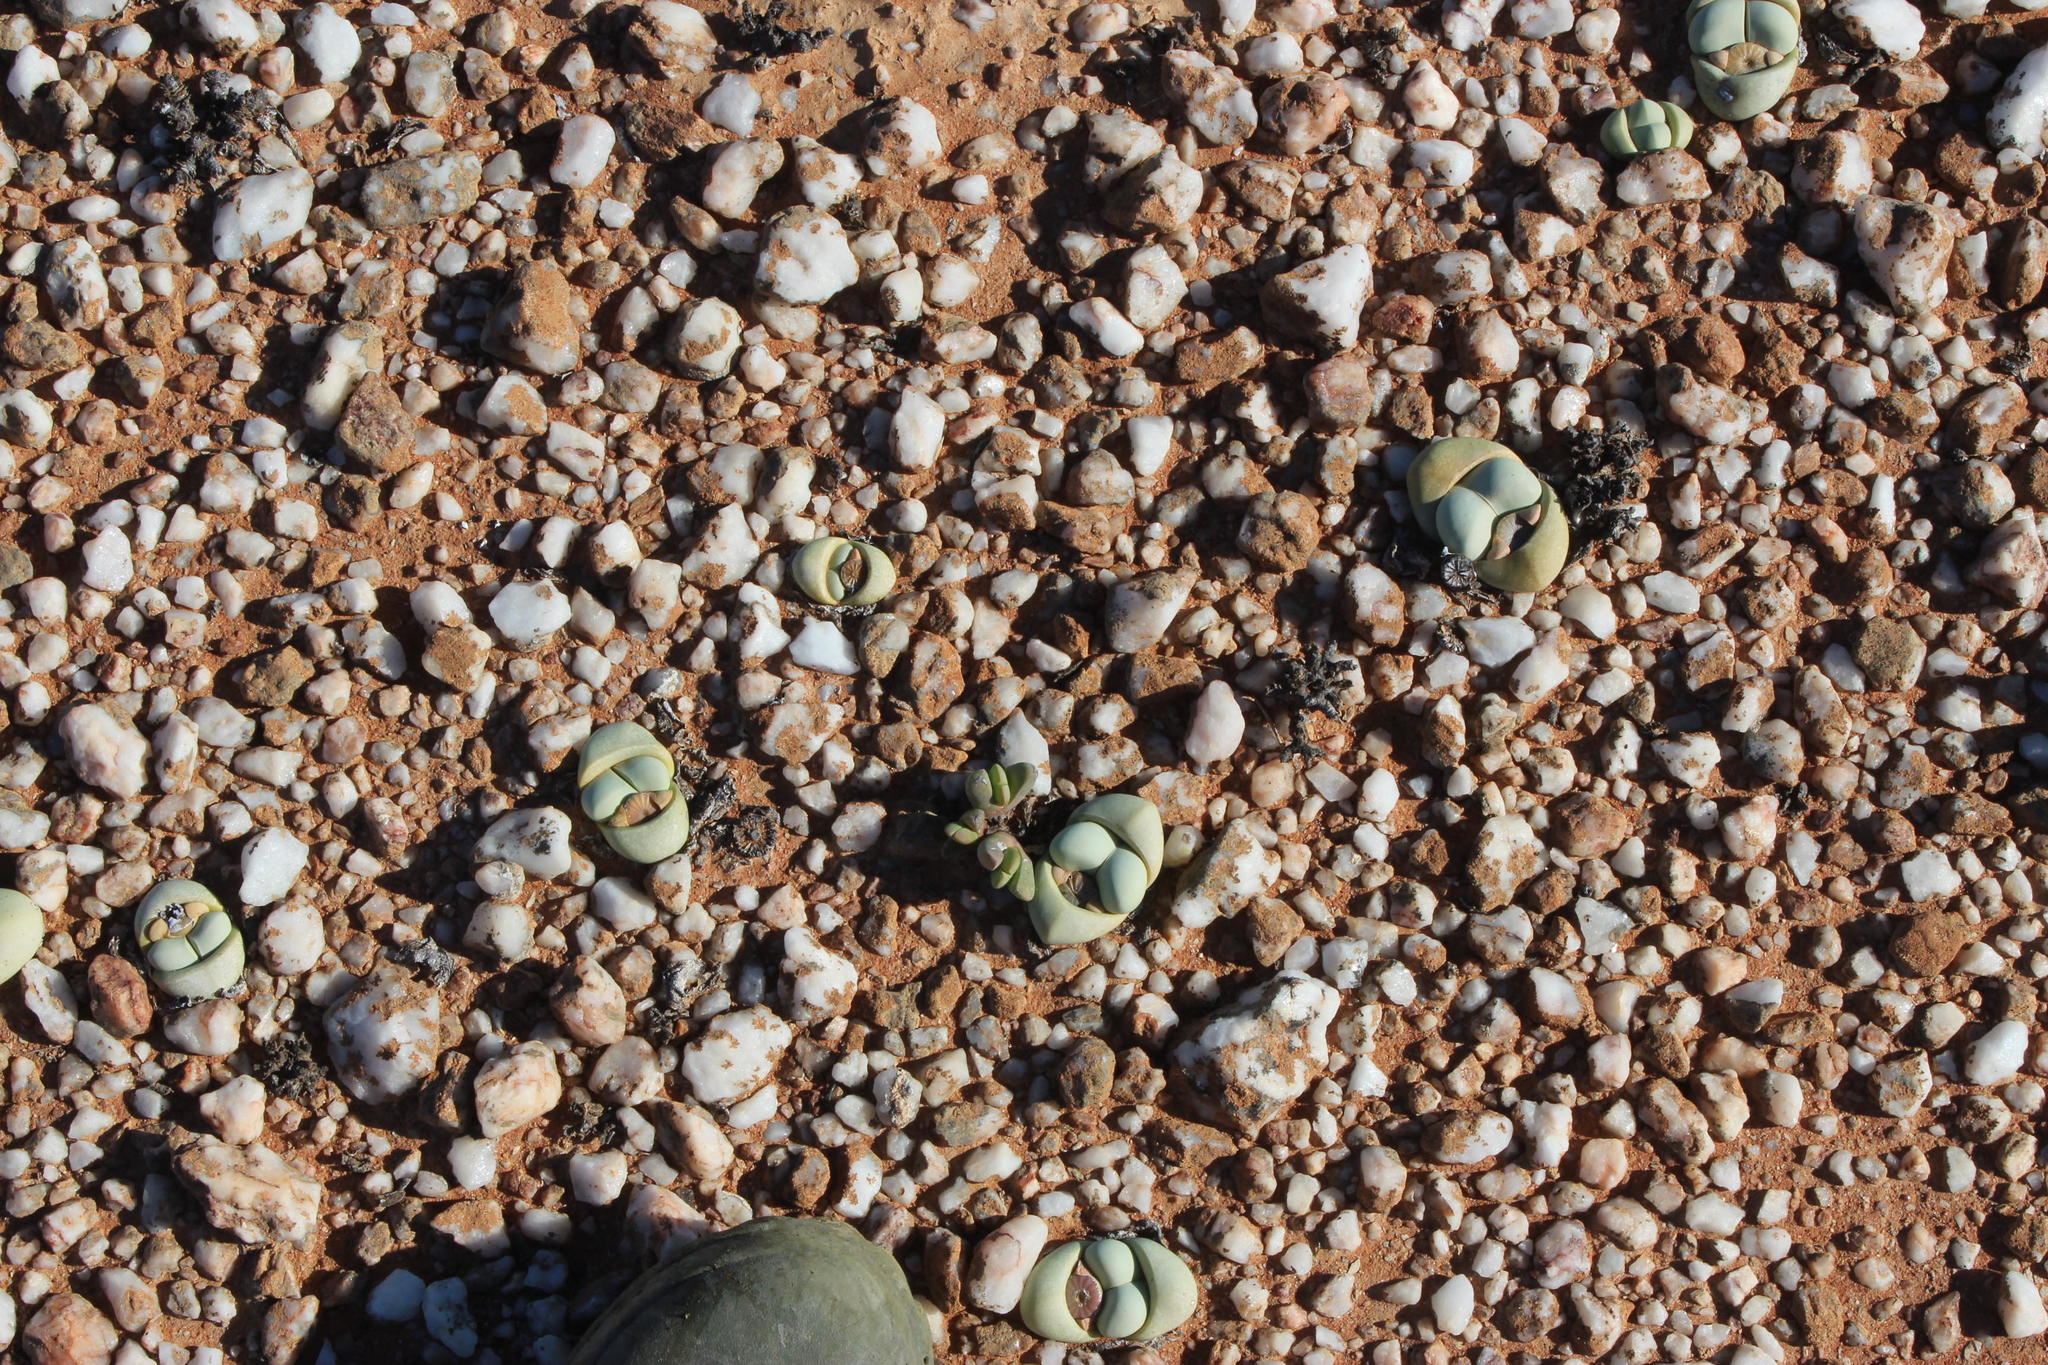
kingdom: Plantae
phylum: Tracheophyta
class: Magnoliopsida
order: Caryophyllales
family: Aizoaceae
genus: Argyroderma
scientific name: Argyroderma delaetii
